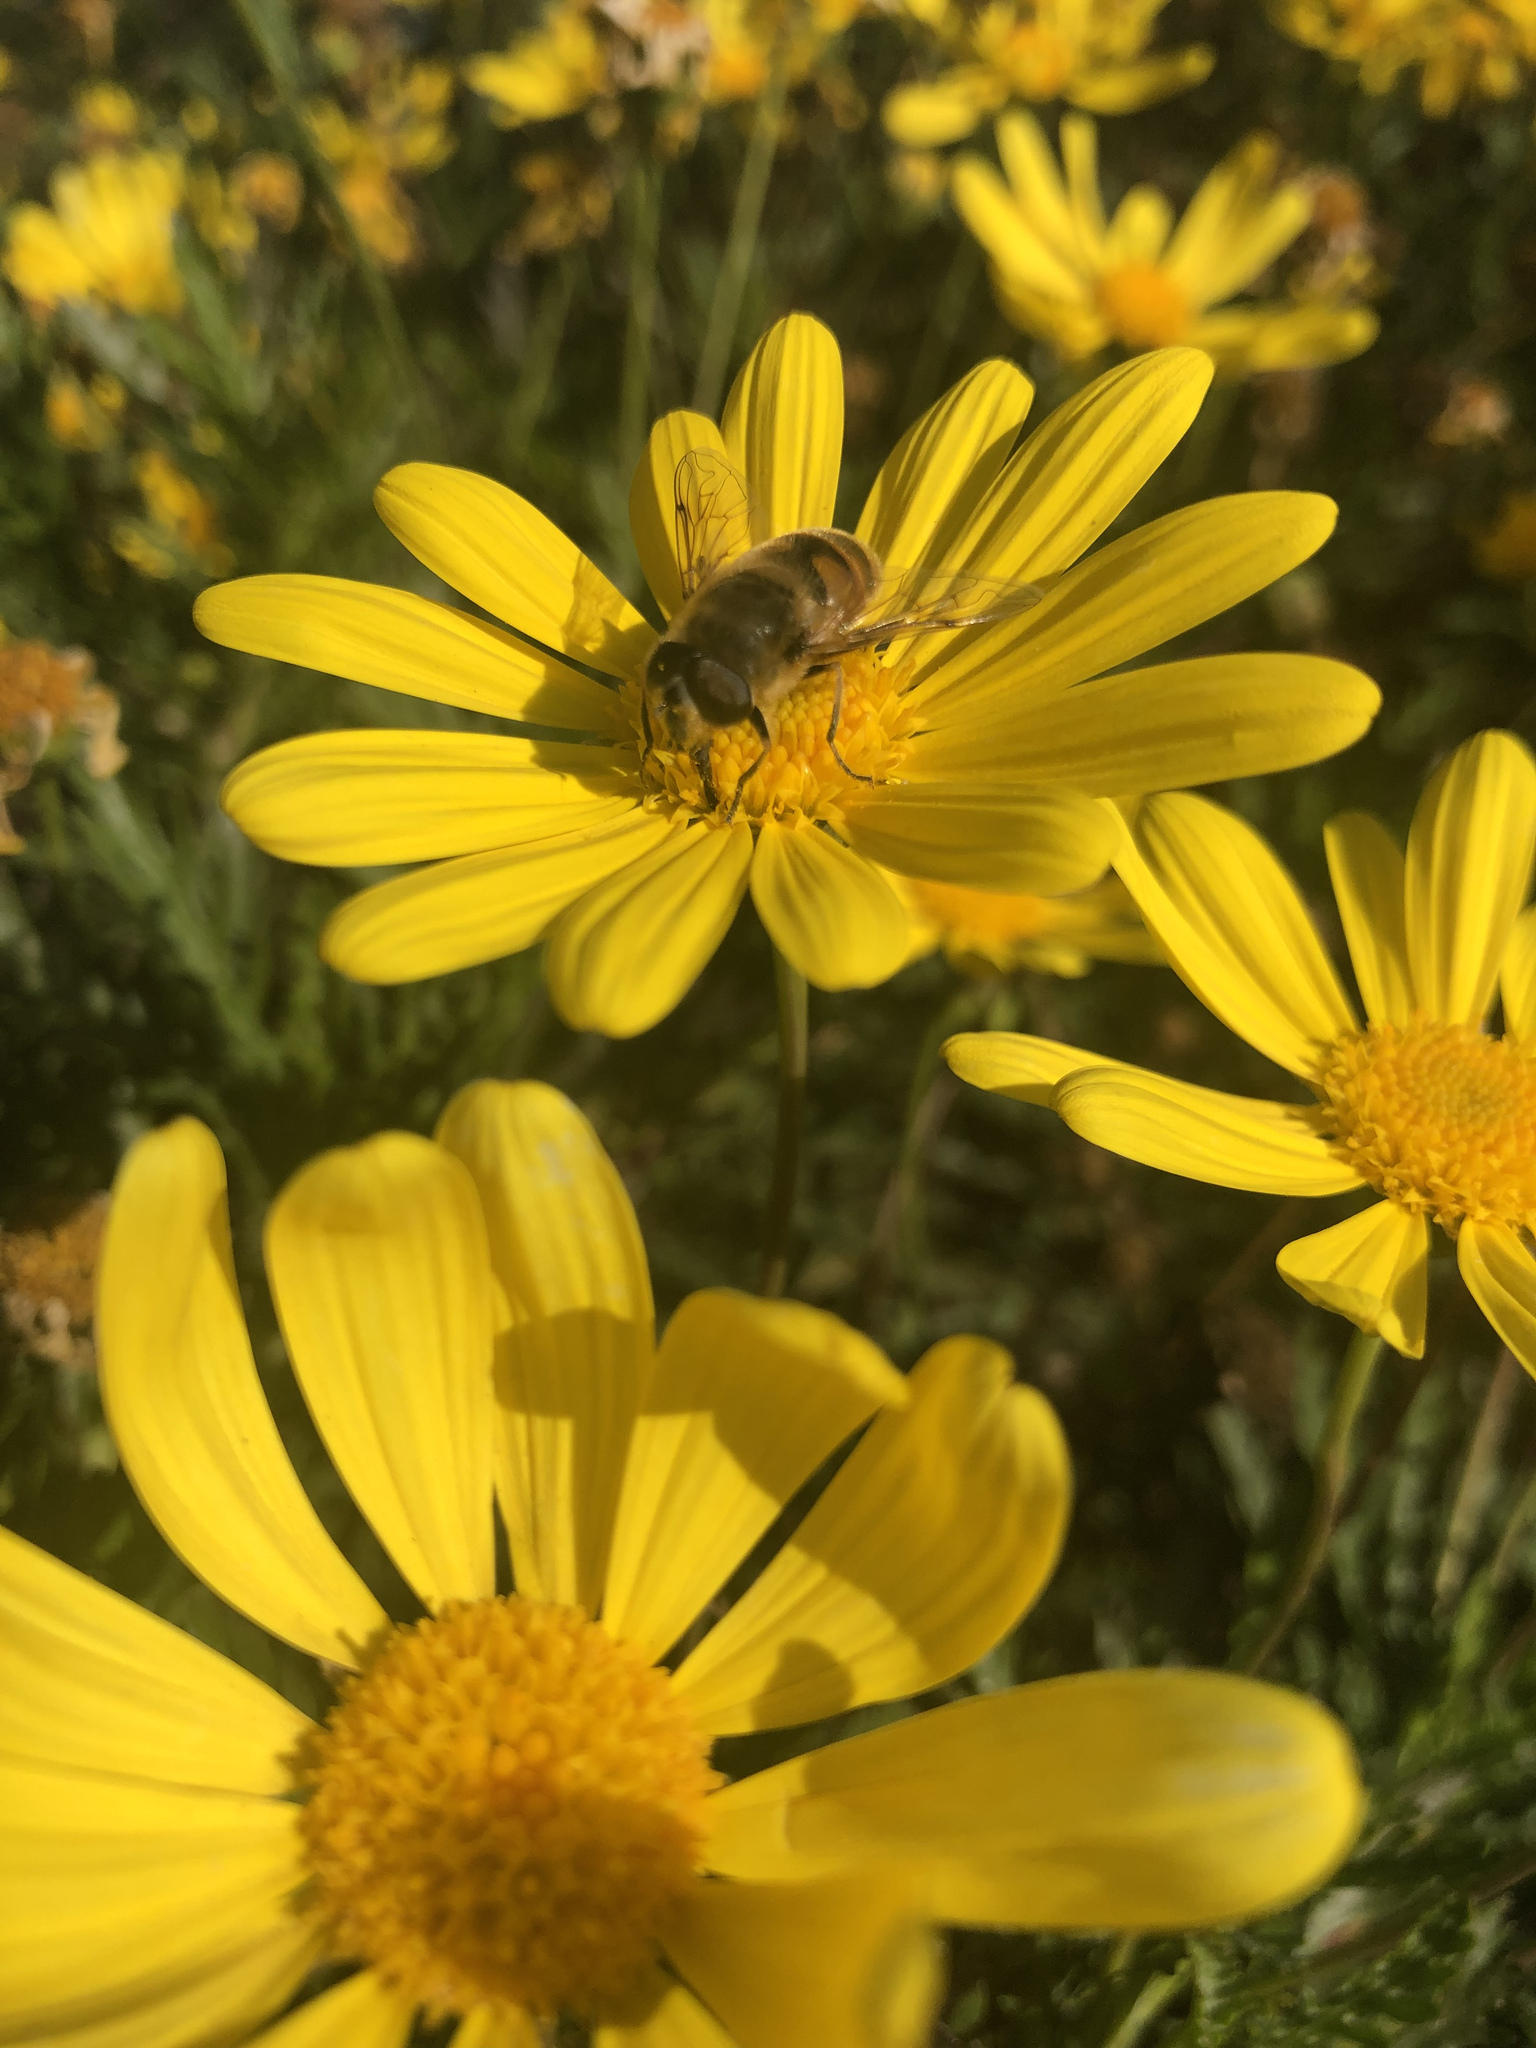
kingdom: Animalia
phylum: Arthropoda
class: Insecta
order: Diptera
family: Syrphidae
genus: Eristalis
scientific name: Eristalis tenax
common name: Drone fly
